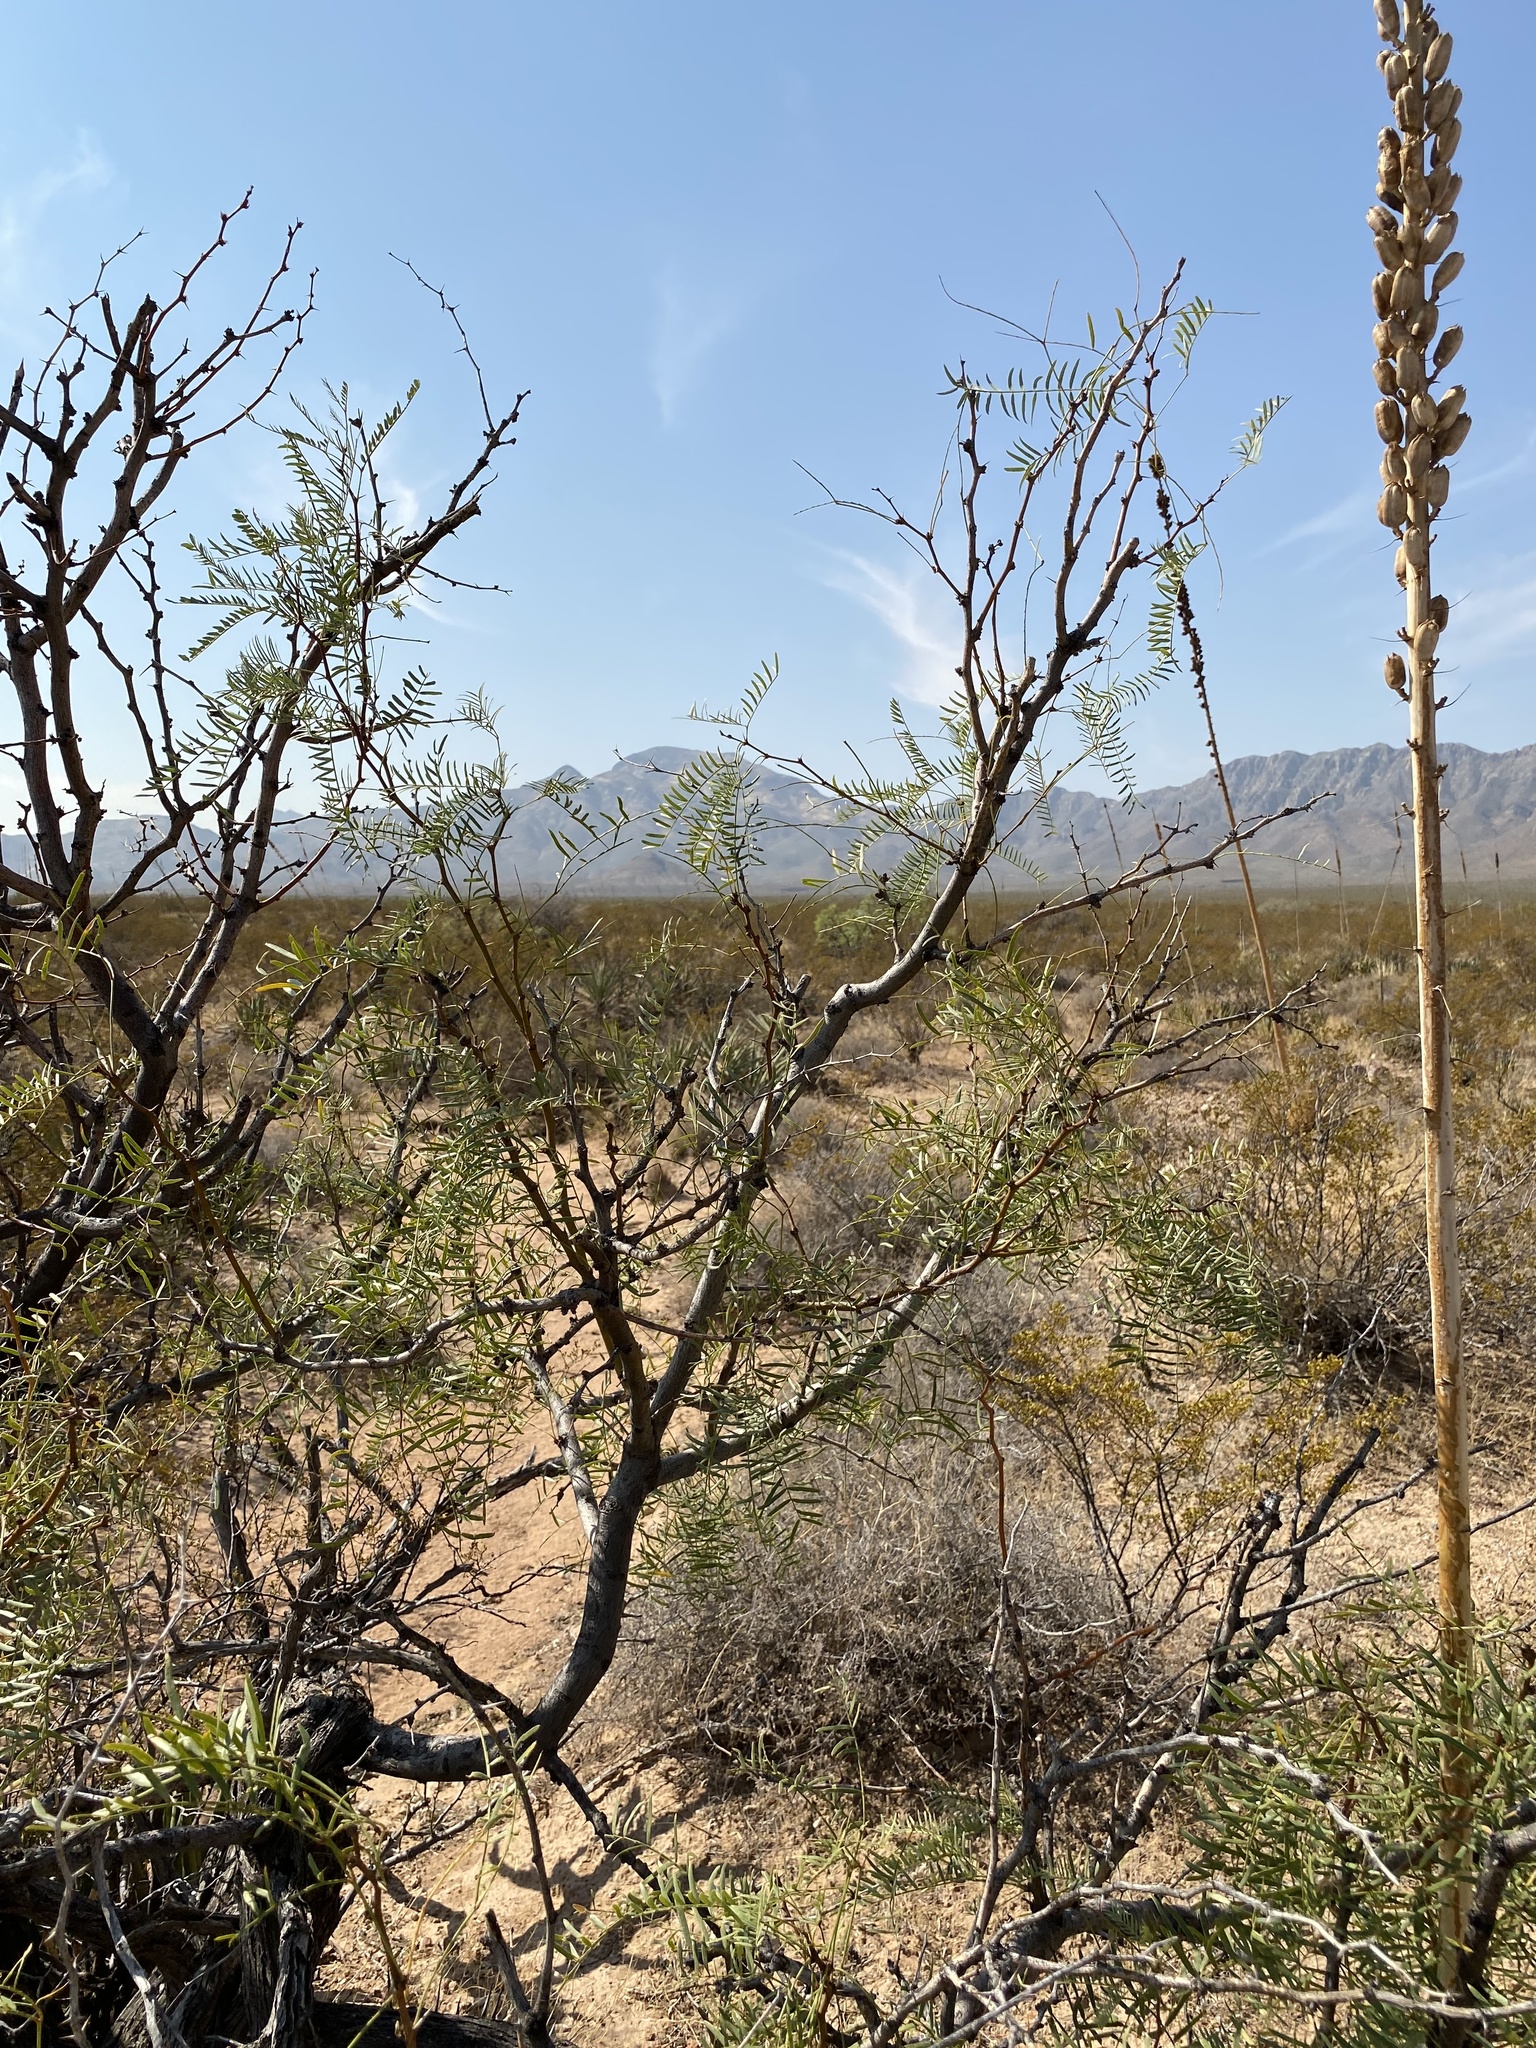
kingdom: Plantae
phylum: Tracheophyta
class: Magnoliopsida
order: Fabales
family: Fabaceae
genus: Prosopis
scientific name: Prosopis glandulosa
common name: Honey mesquite
